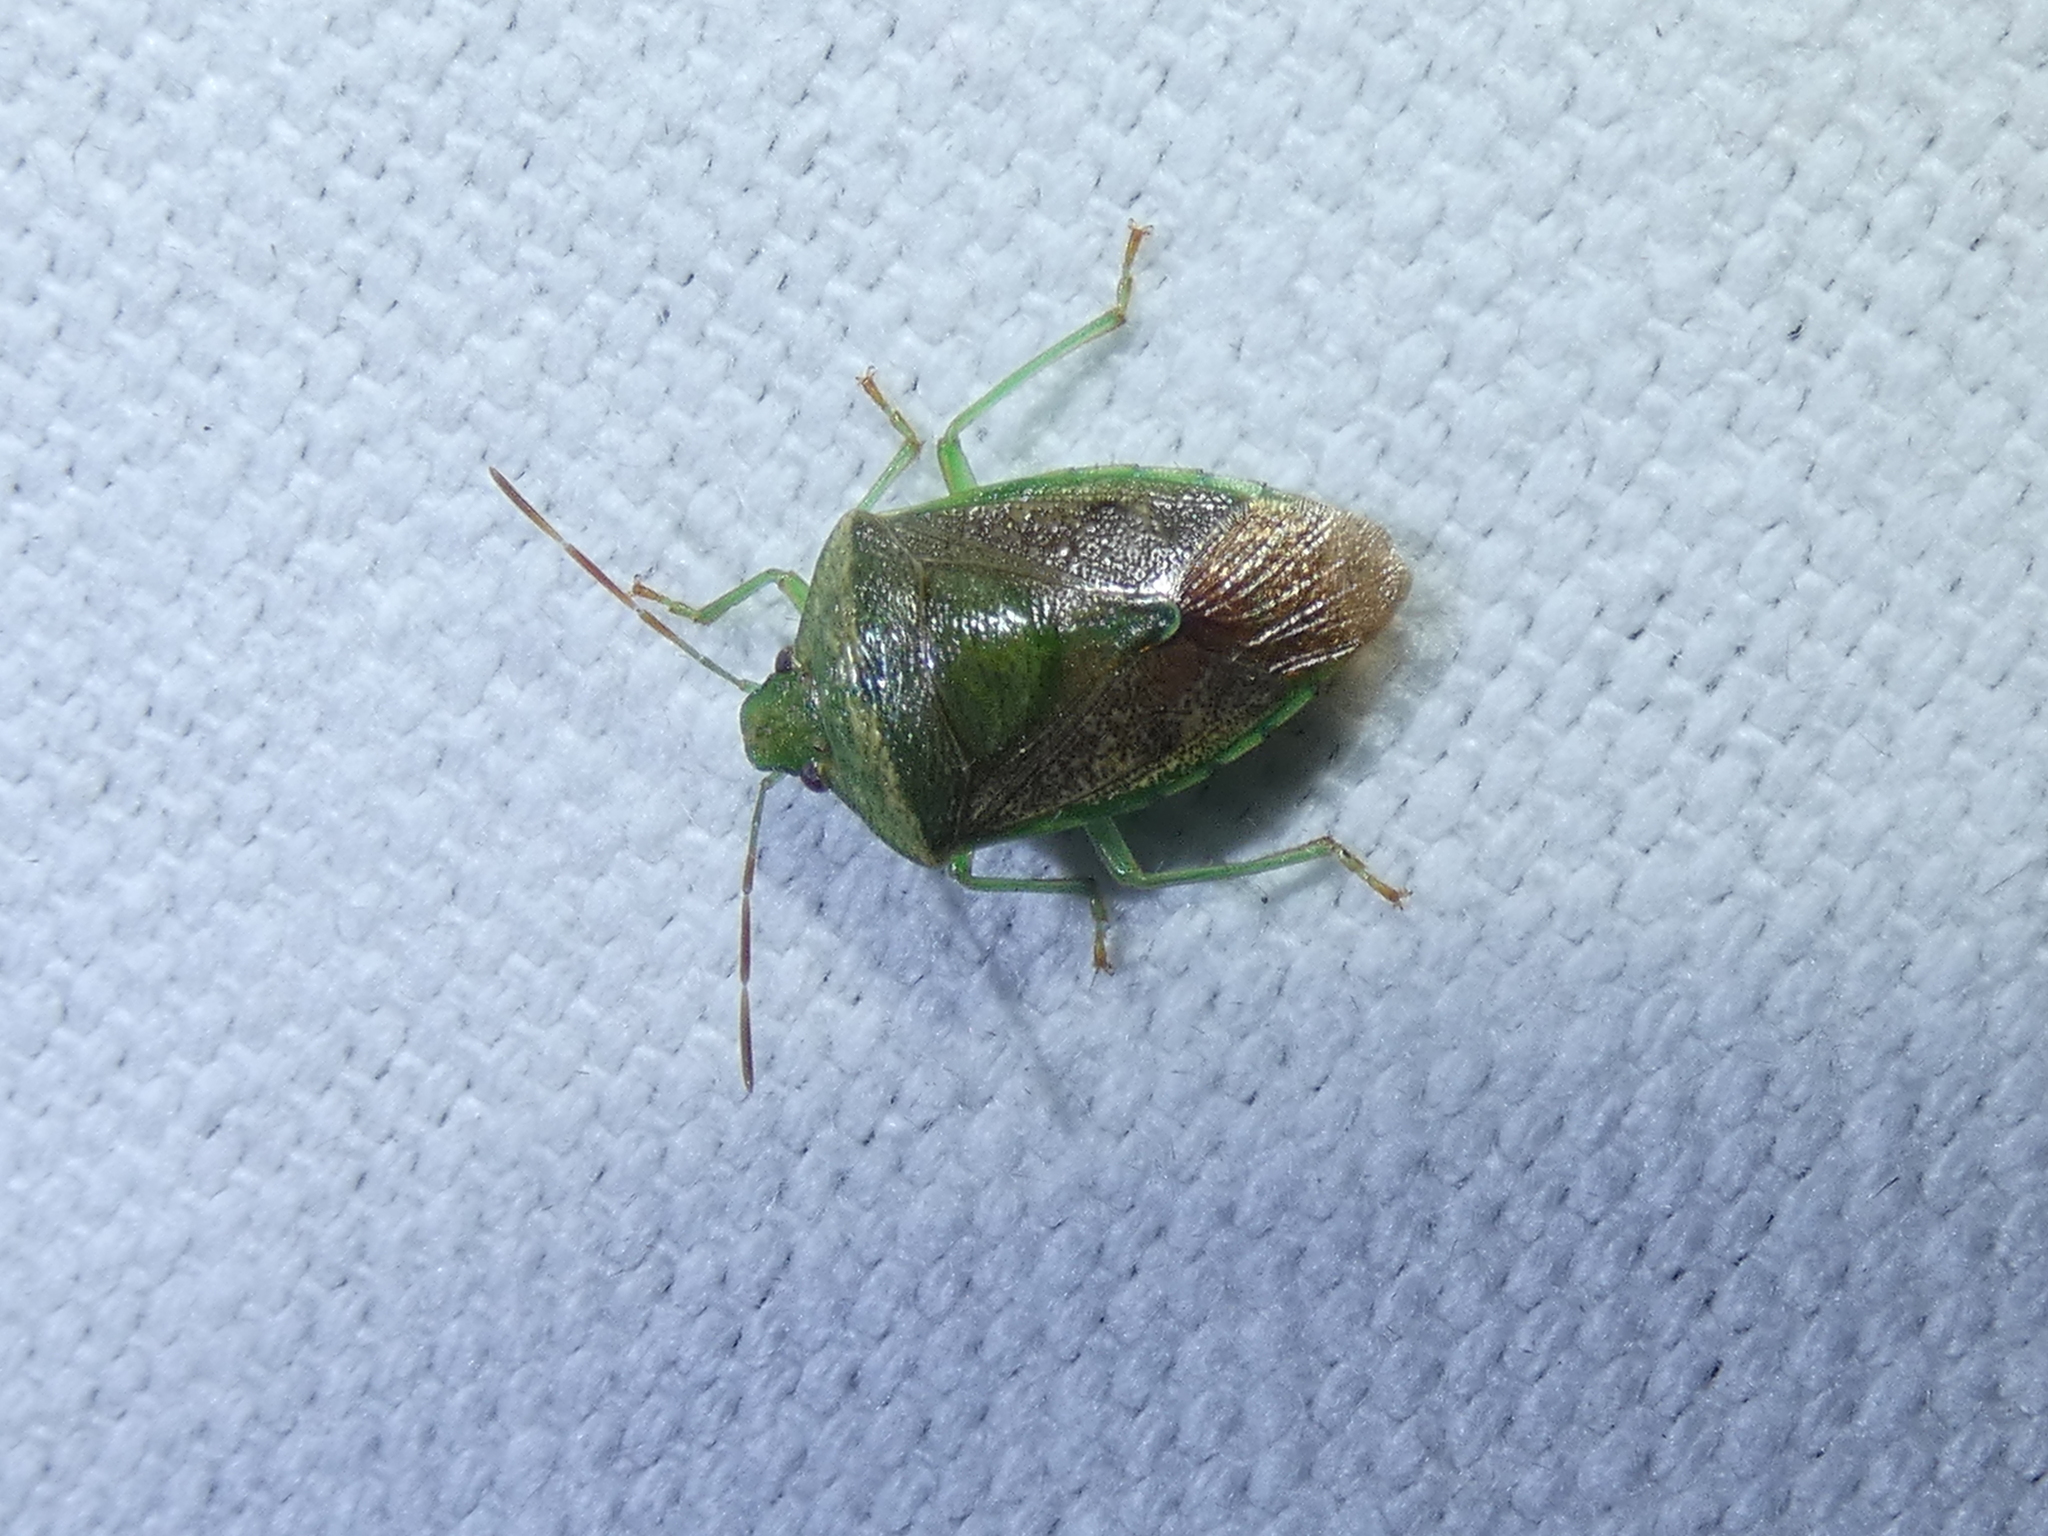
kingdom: Animalia
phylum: Arthropoda
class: Insecta
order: Hemiptera
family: Pentatomidae
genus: Banasa
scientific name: Banasa calva
